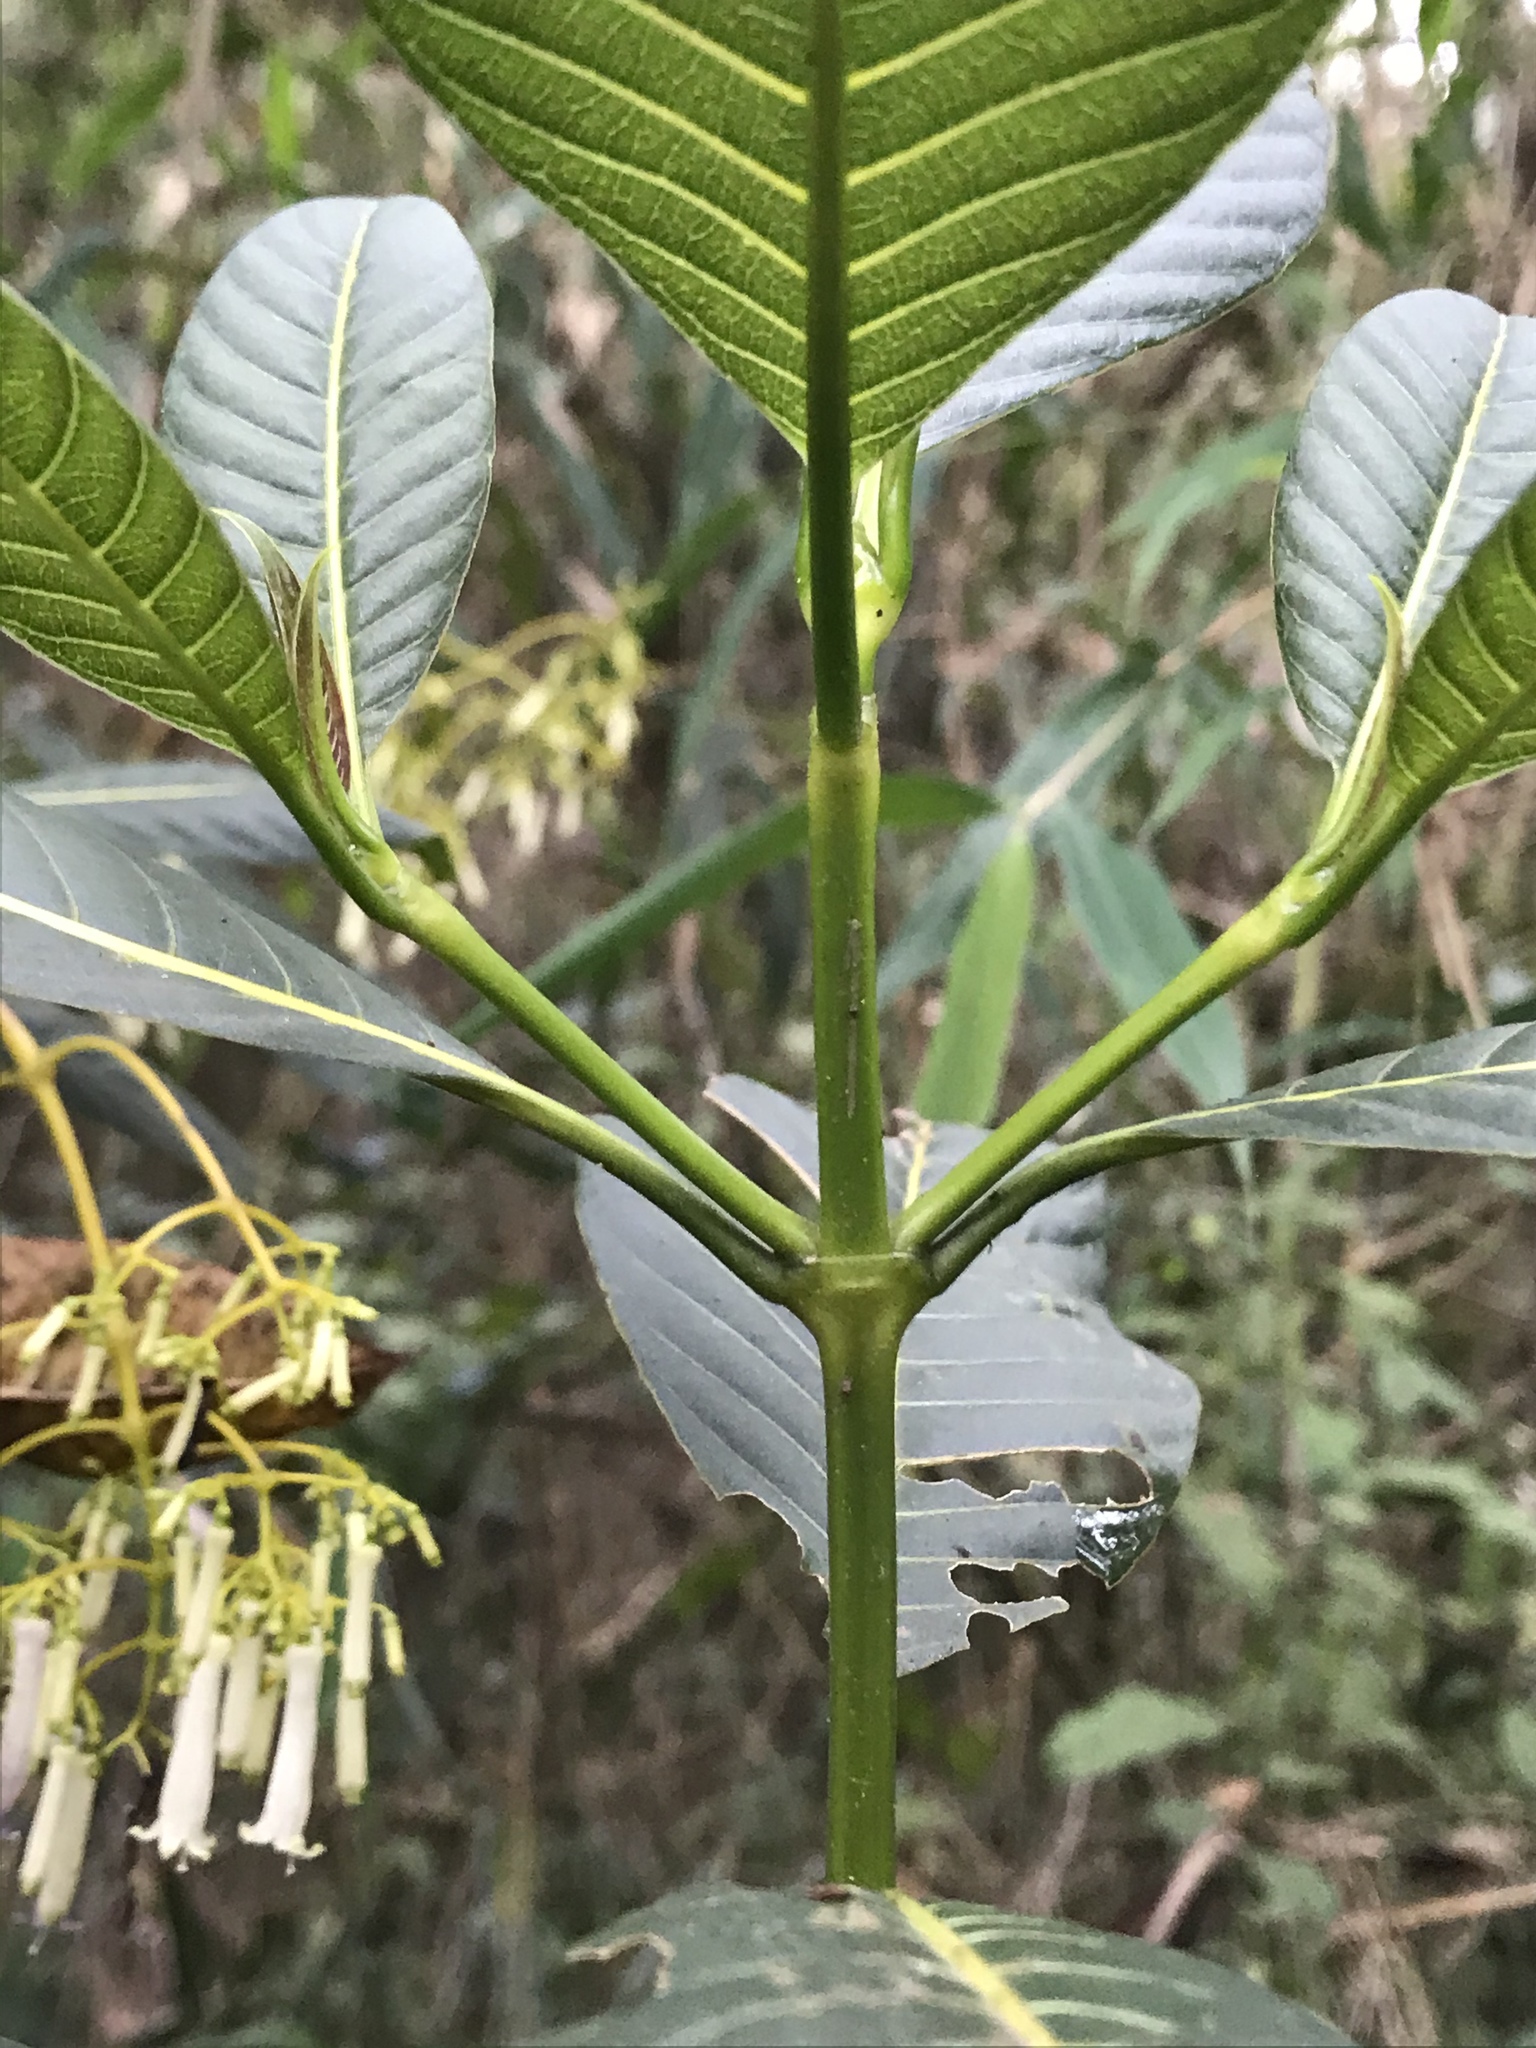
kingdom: Plantae
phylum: Tracheophyta
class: Magnoliopsida
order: Gentianales
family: Rubiaceae
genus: Palicourea
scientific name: Palicourea lineariflora
